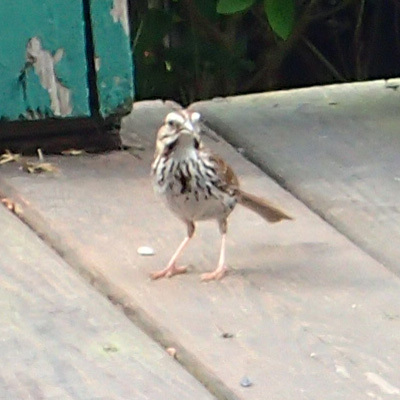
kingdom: Animalia
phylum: Chordata
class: Aves
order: Passeriformes
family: Passerellidae
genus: Melospiza
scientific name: Melospiza melodia
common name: Song sparrow
